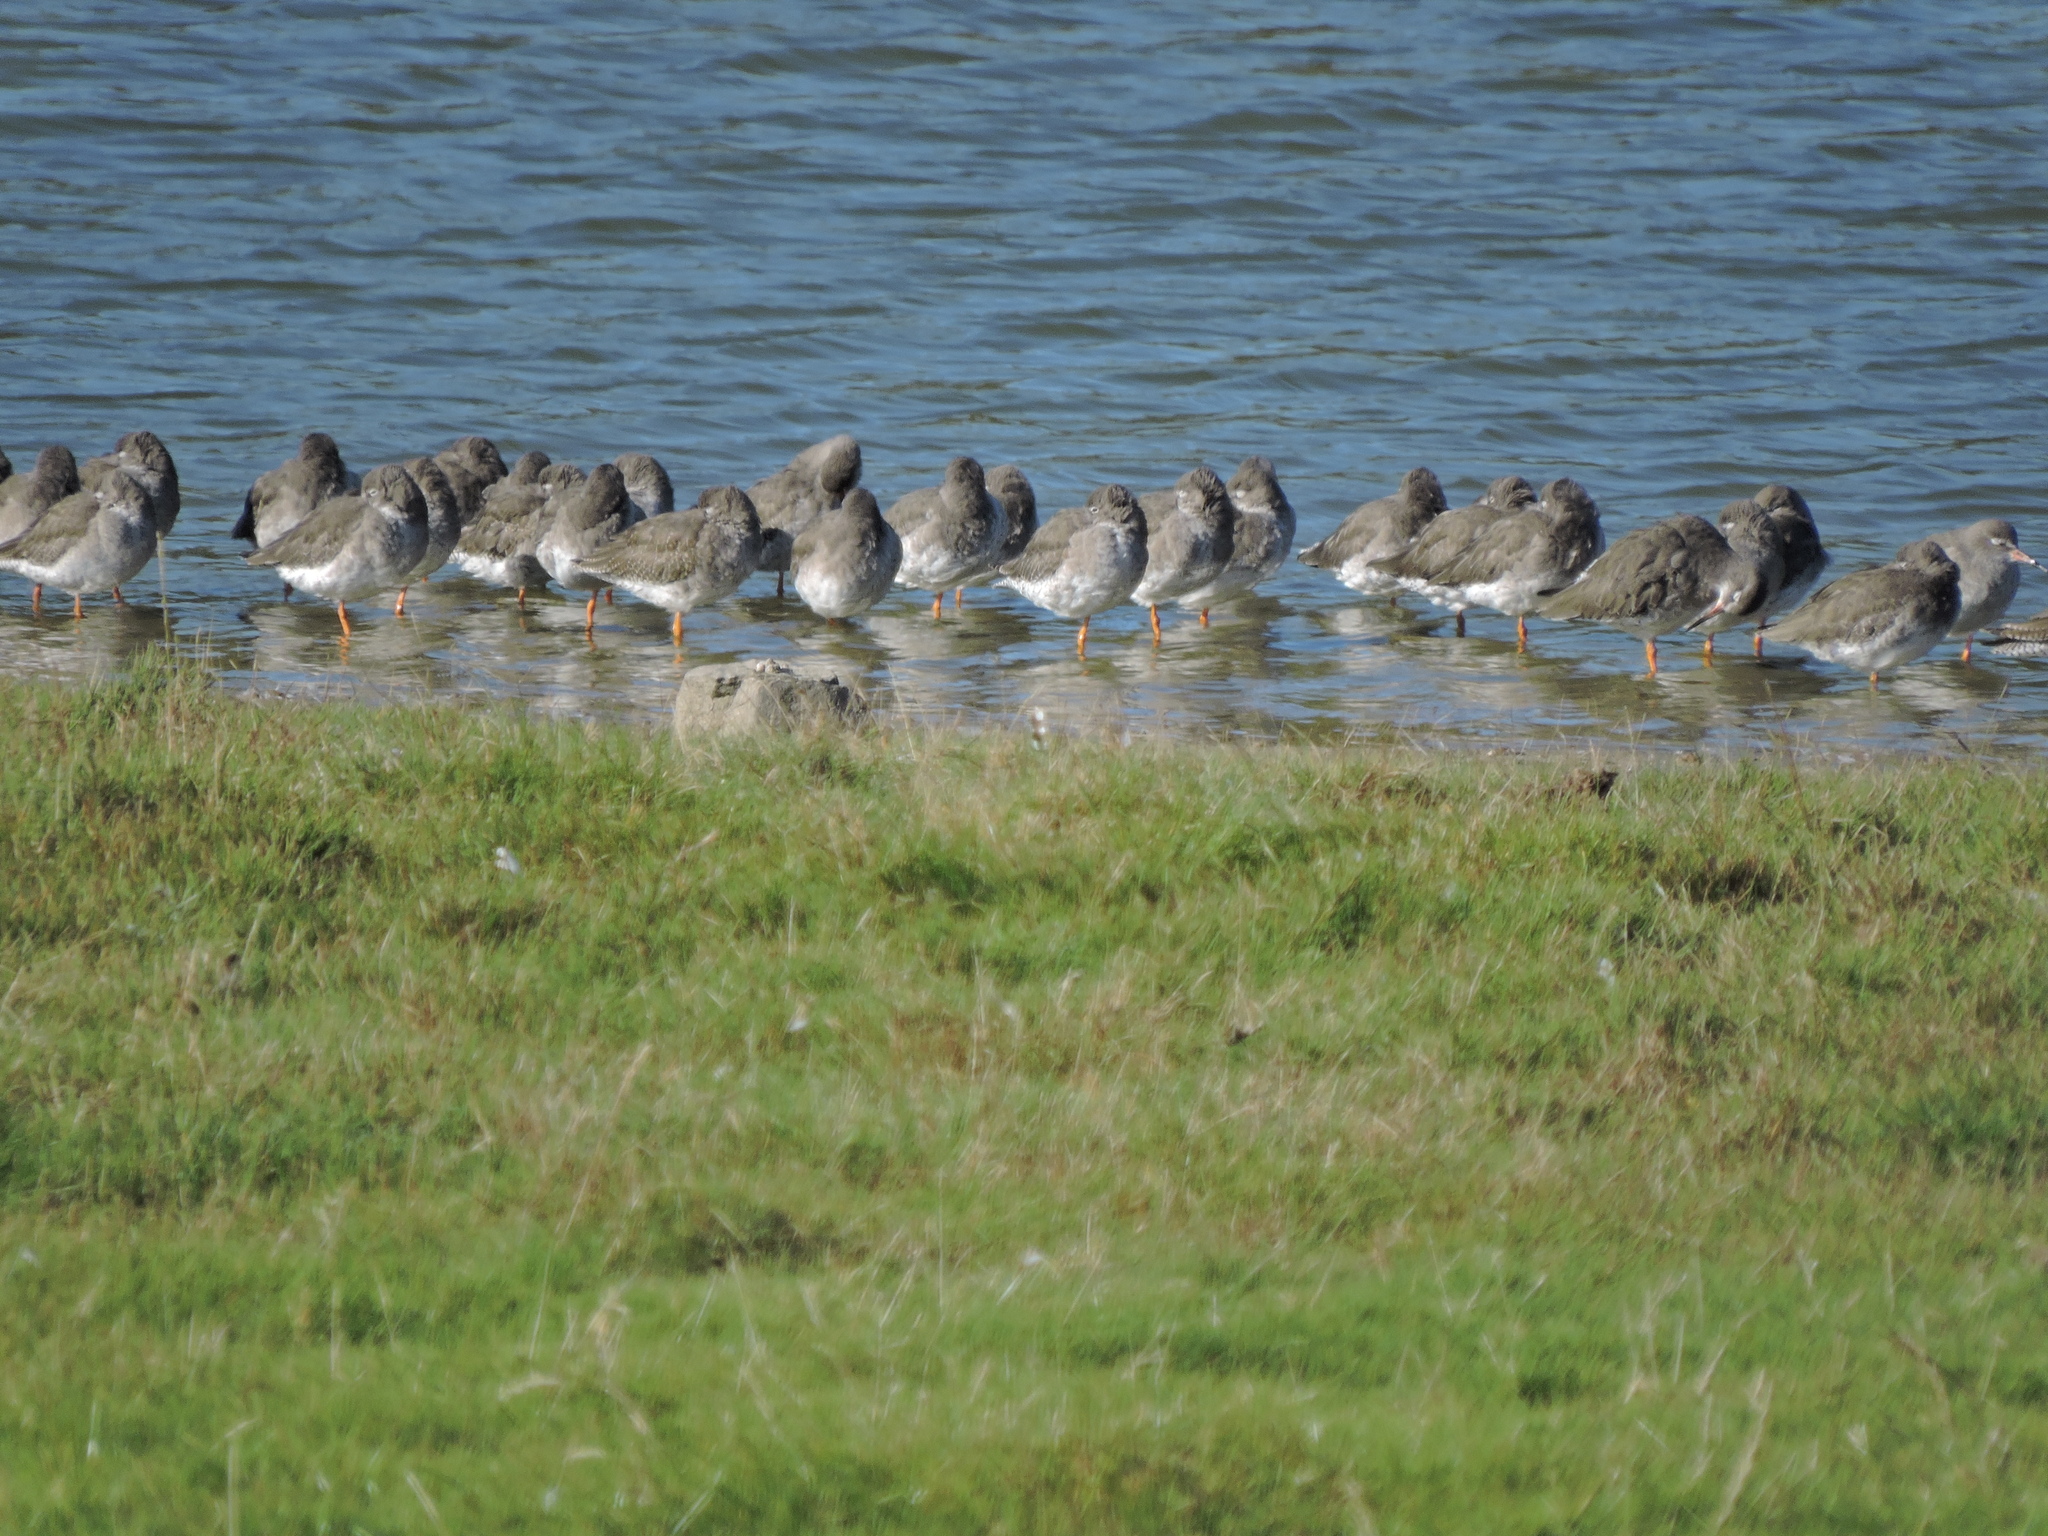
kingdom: Animalia
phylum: Chordata
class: Aves
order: Charadriiformes
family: Scolopacidae
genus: Tringa
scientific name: Tringa totanus
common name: Common redshank
